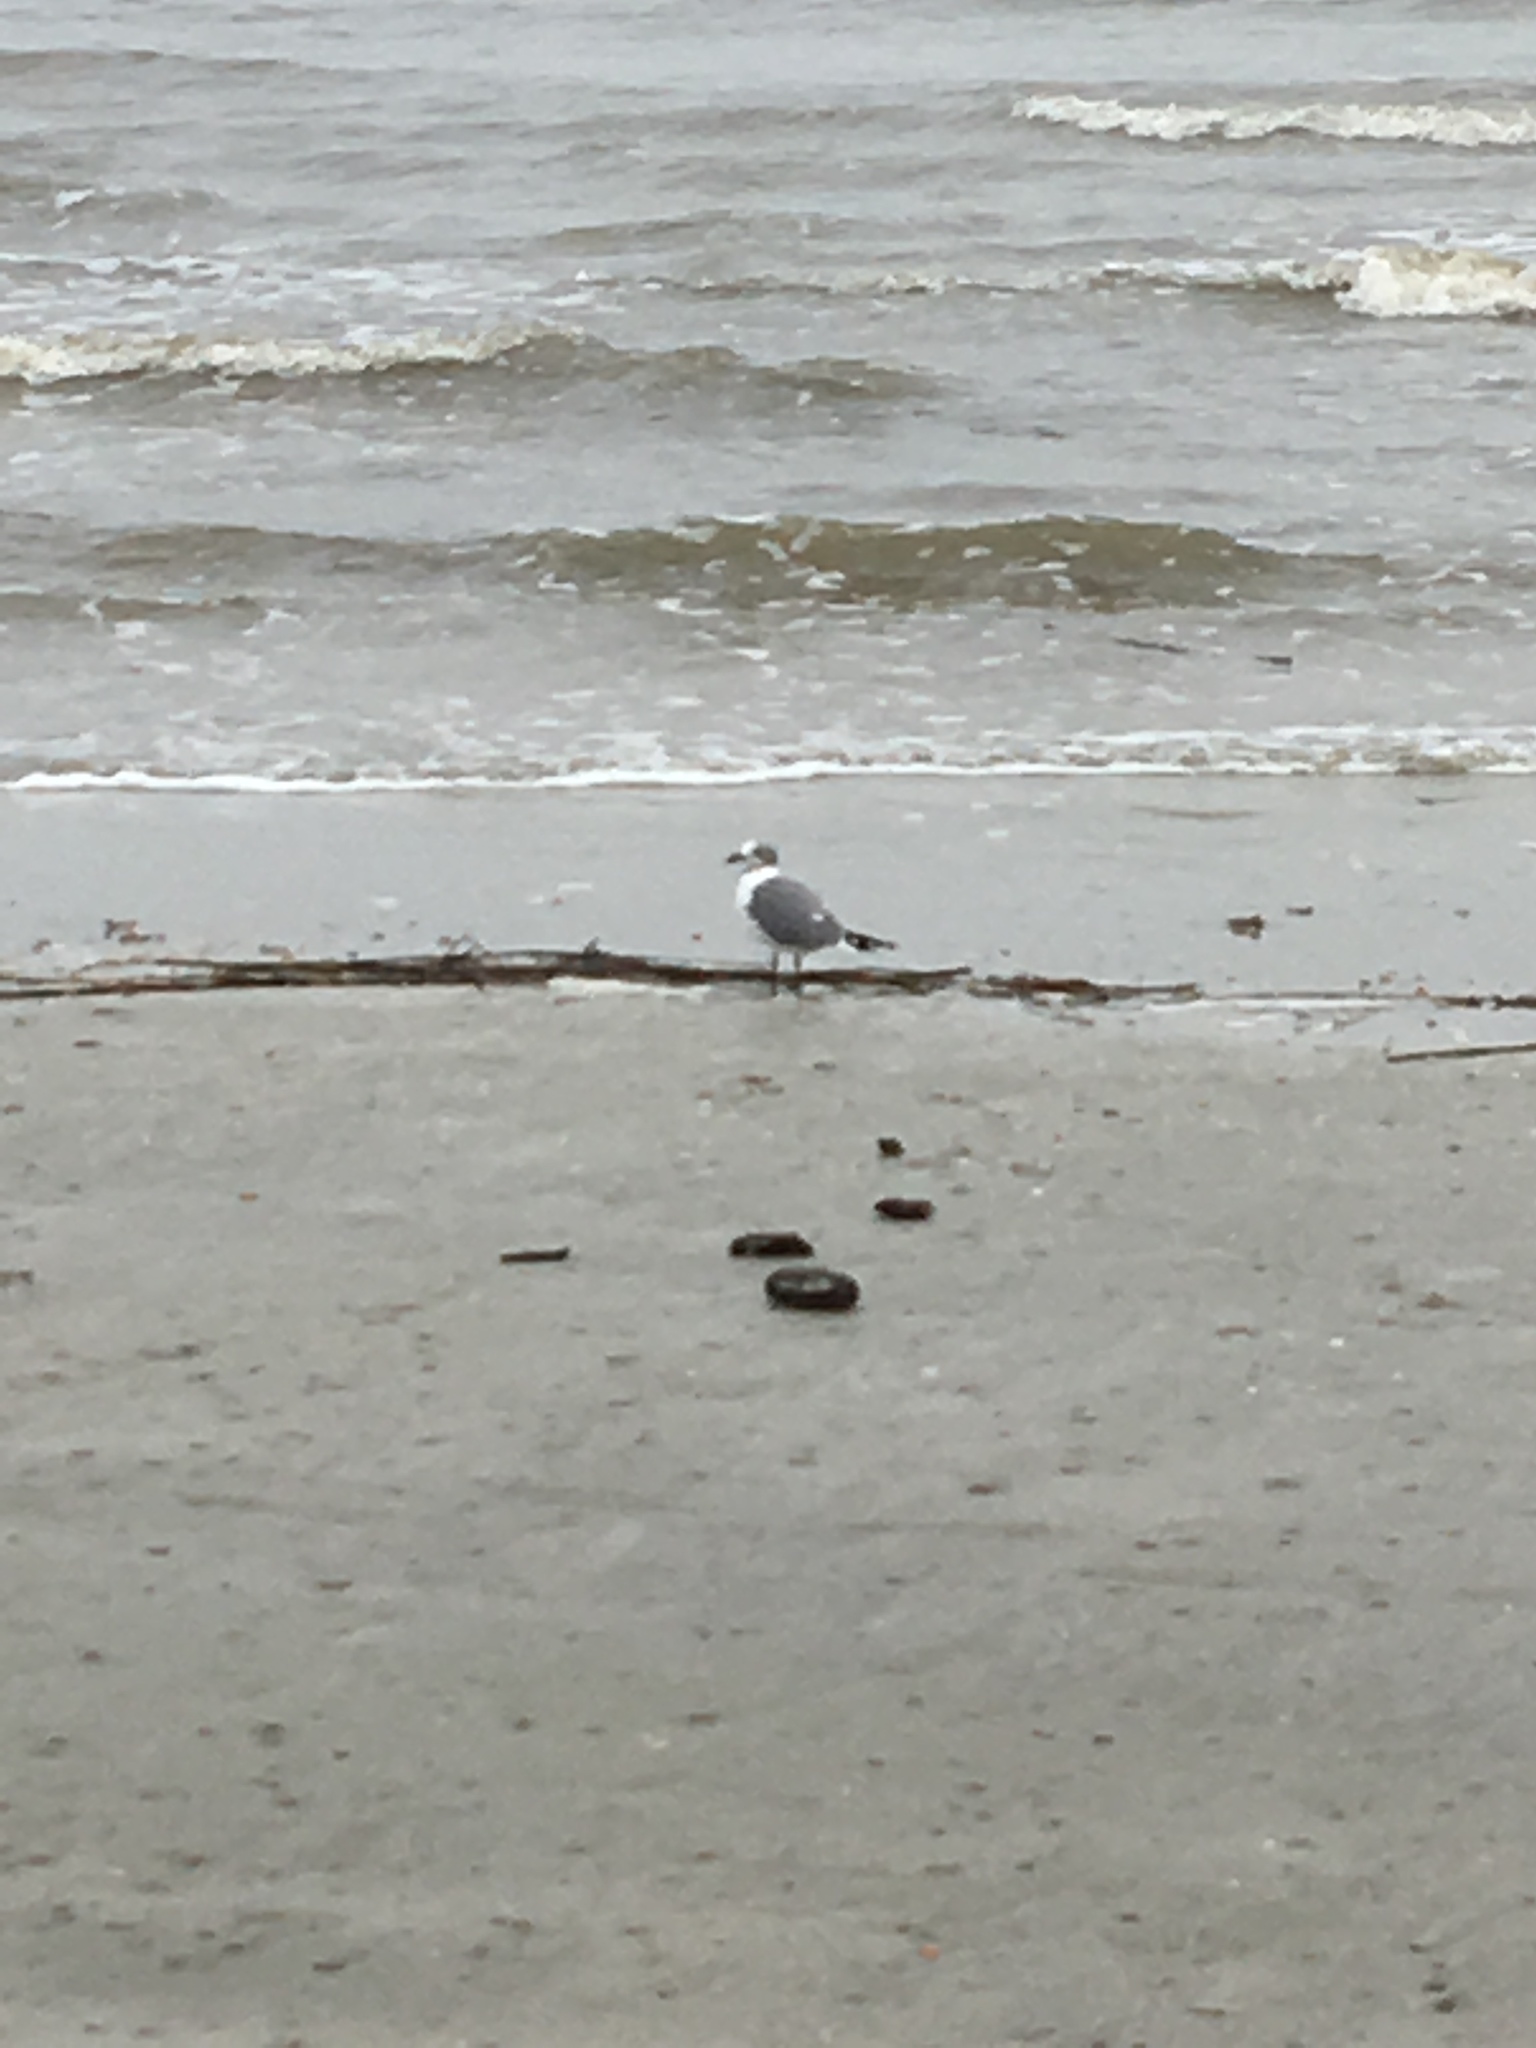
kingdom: Animalia
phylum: Chordata
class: Aves
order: Charadriiformes
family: Laridae
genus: Leucophaeus
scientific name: Leucophaeus atricilla
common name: Laughing gull
